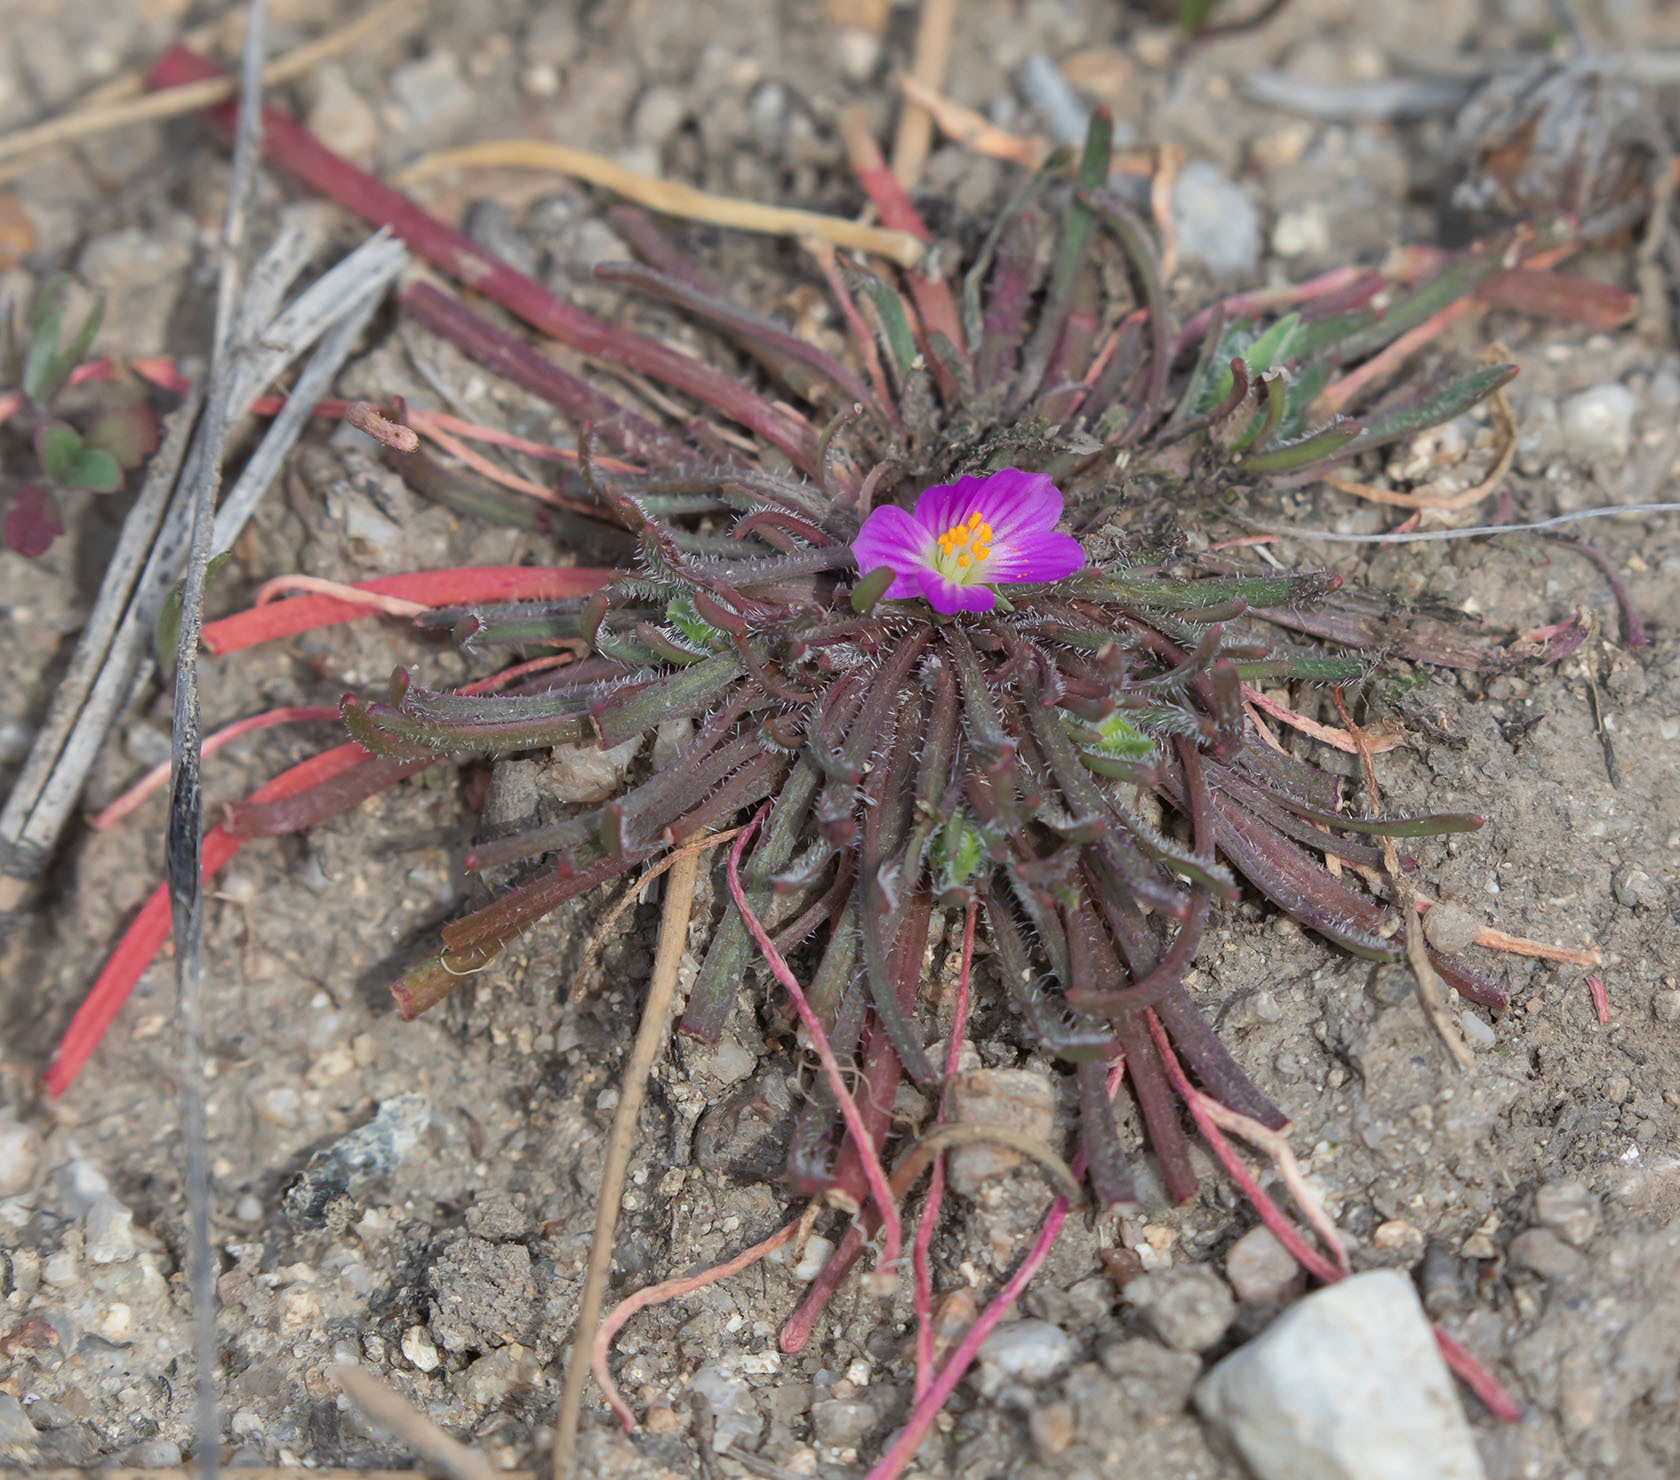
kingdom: Plantae
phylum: Tracheophyta
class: Magnoliopsida
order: Caryophyllales
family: Montiaceae
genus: Calandrinia
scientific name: Calandrinia menziesii
